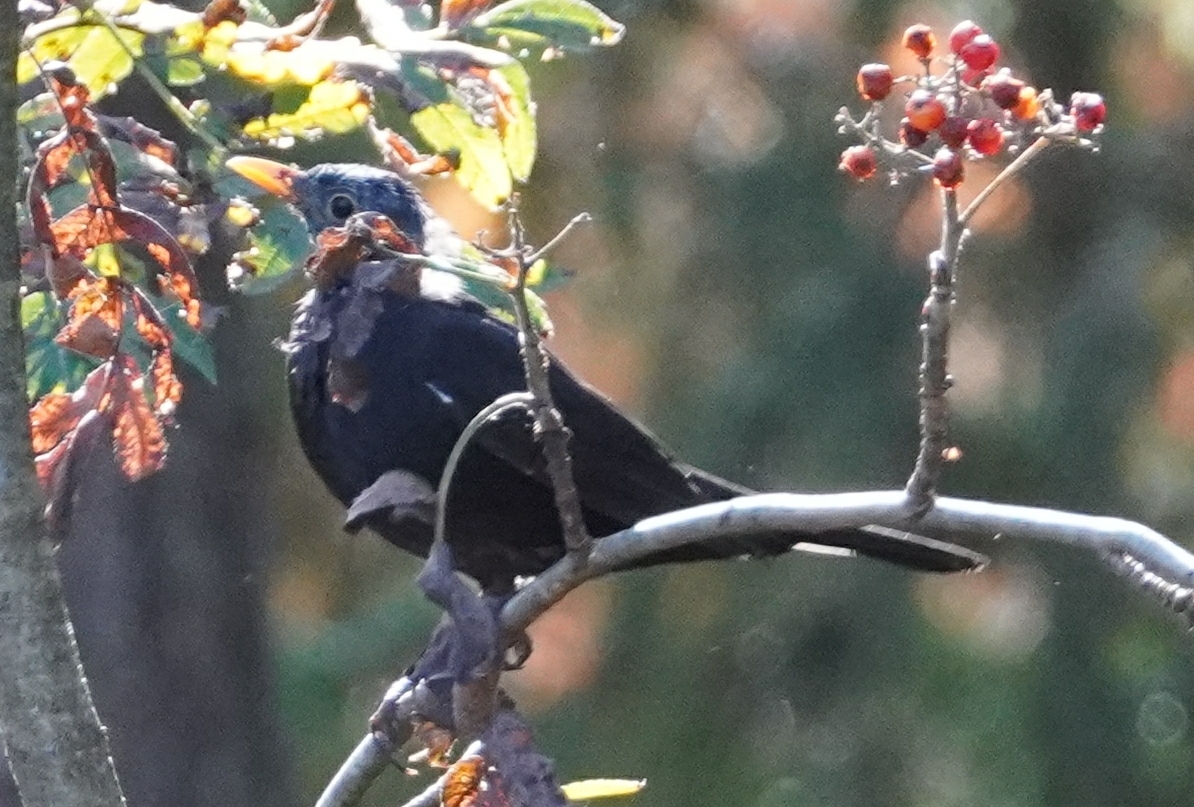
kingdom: Animalia
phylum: Chordata
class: Aves
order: Passeriformes
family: Turdidae
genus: Turdus
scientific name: Turdus merula
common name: Common blackbird
